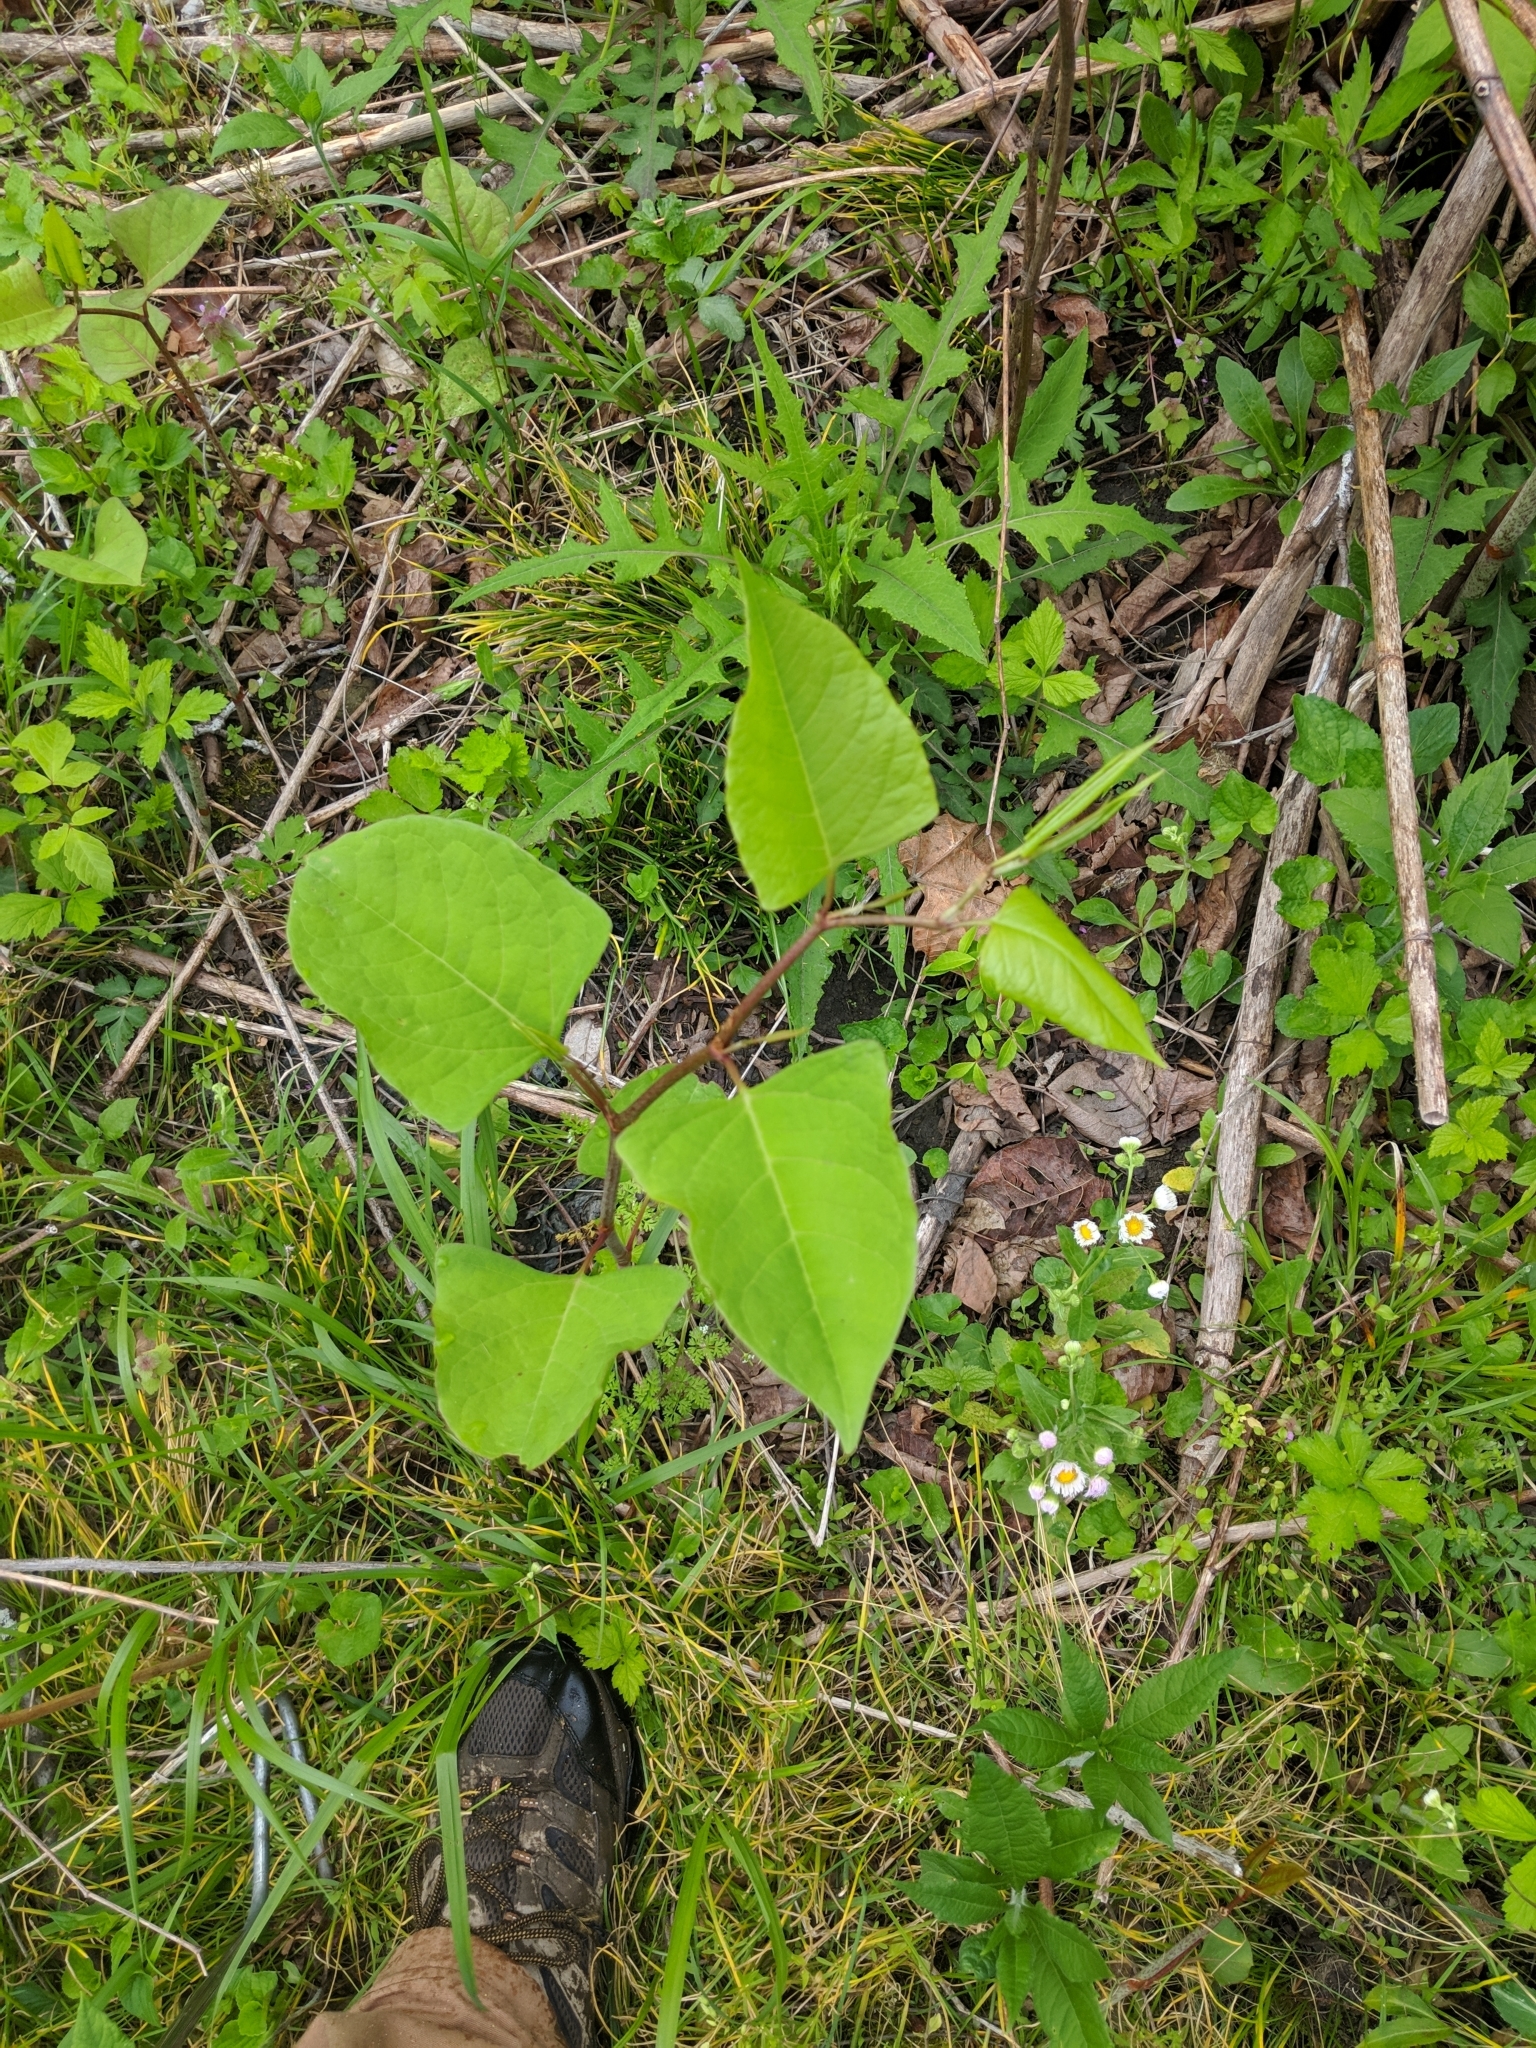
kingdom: Plantae
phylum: Tracheophyta
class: Magnoliopsida
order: Caryophyllales
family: Polygonaceae
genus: Reynoutria
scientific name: Reynoutria japonica
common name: Japanese knotweed
